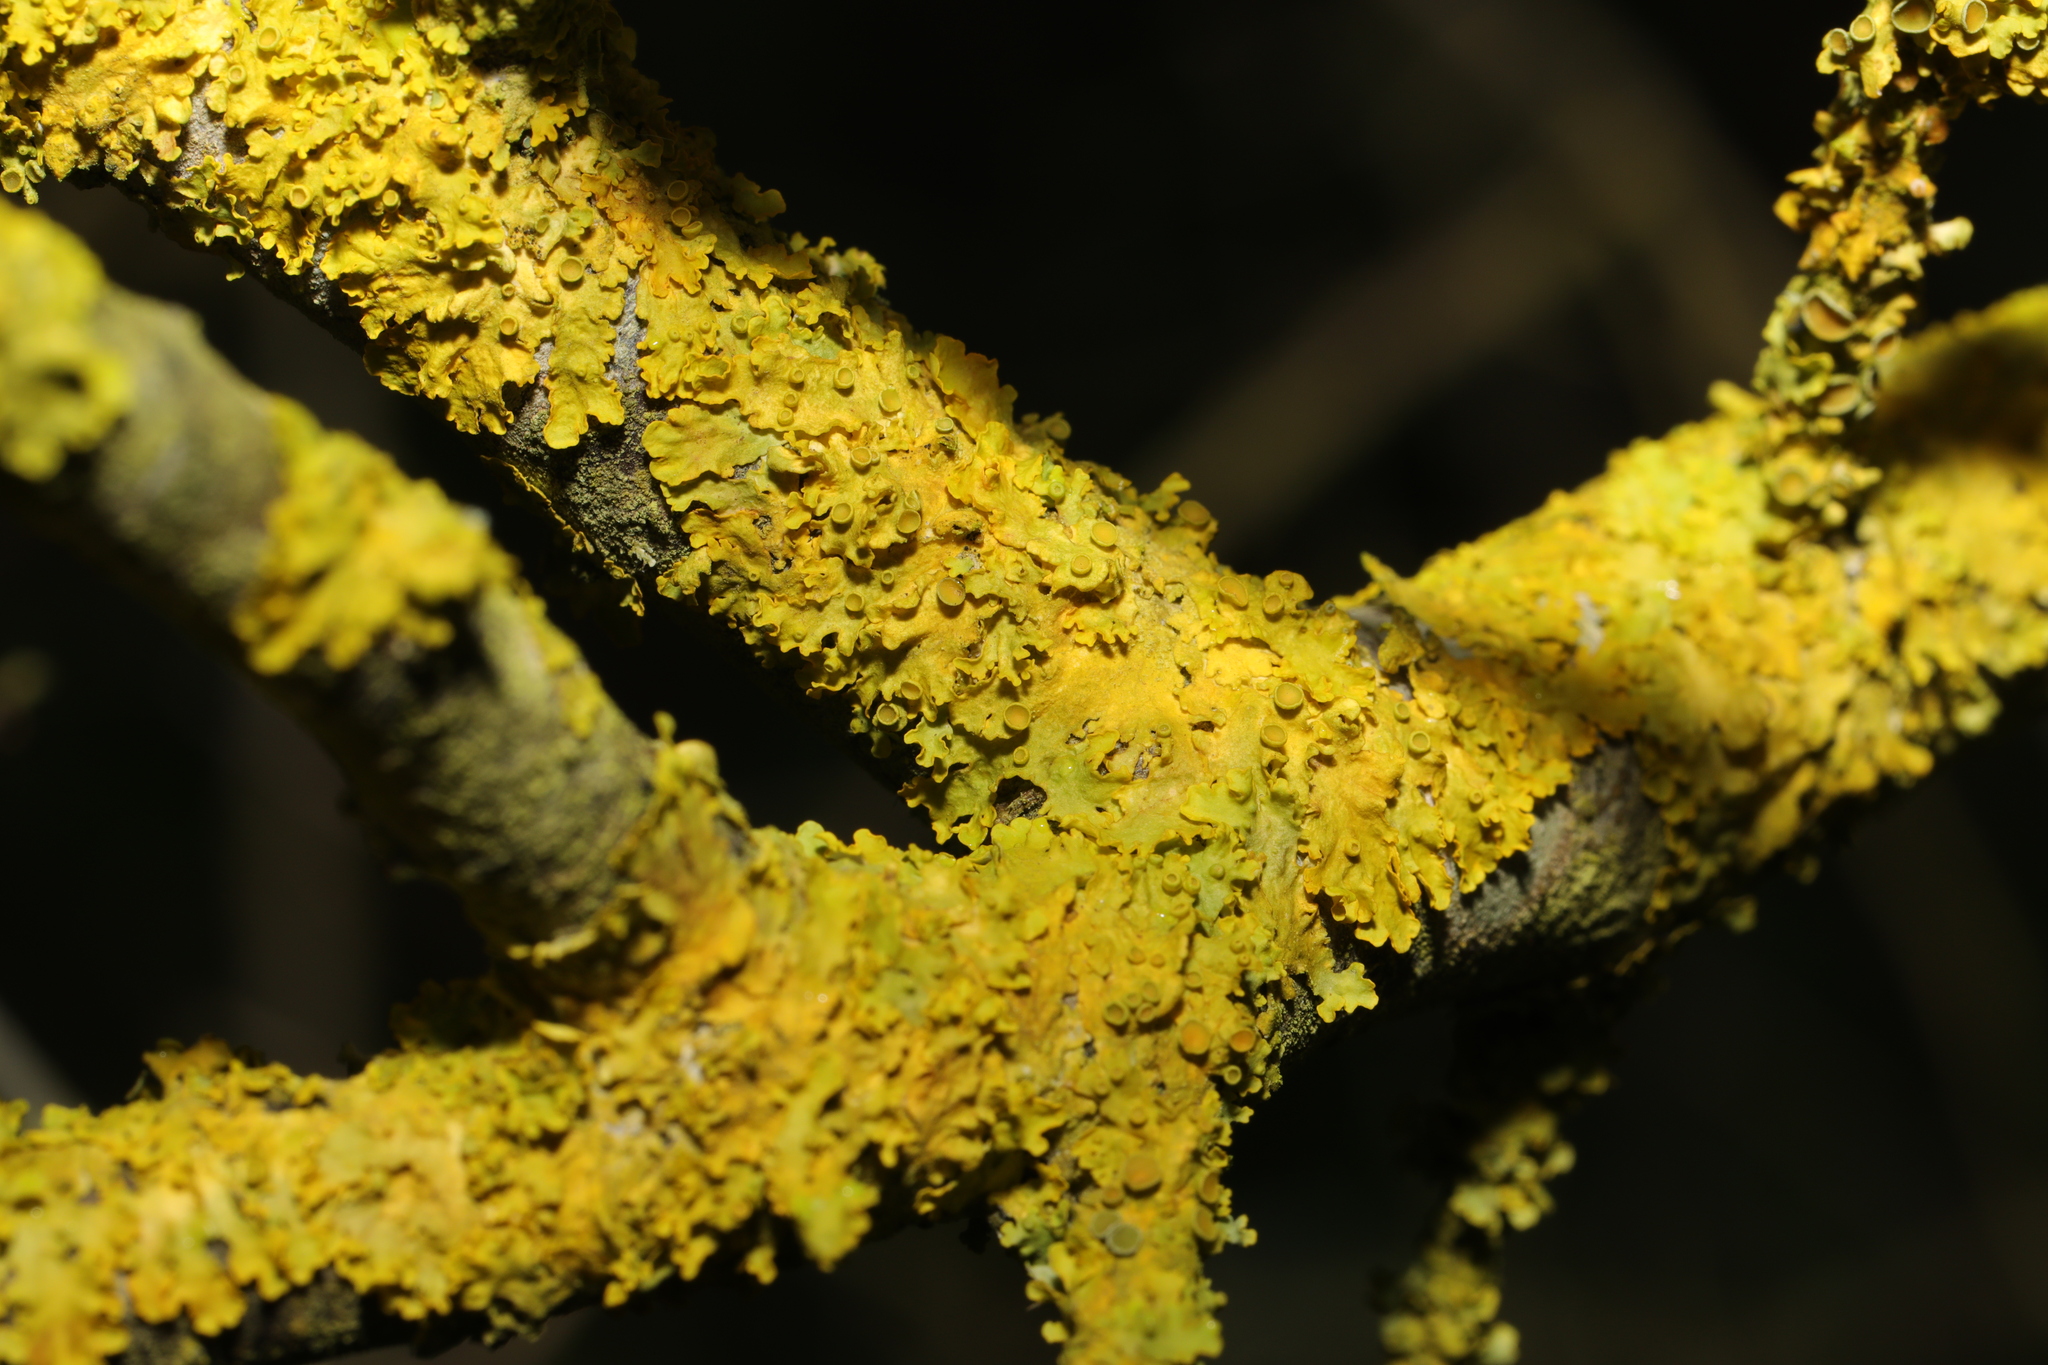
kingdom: Fungi
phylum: Ascomycota
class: Lecanoromycetes
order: Teloschistales
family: Teloschistaceae
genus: Xanthoria
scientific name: Xanthoria parietina
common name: Common orange lichen
